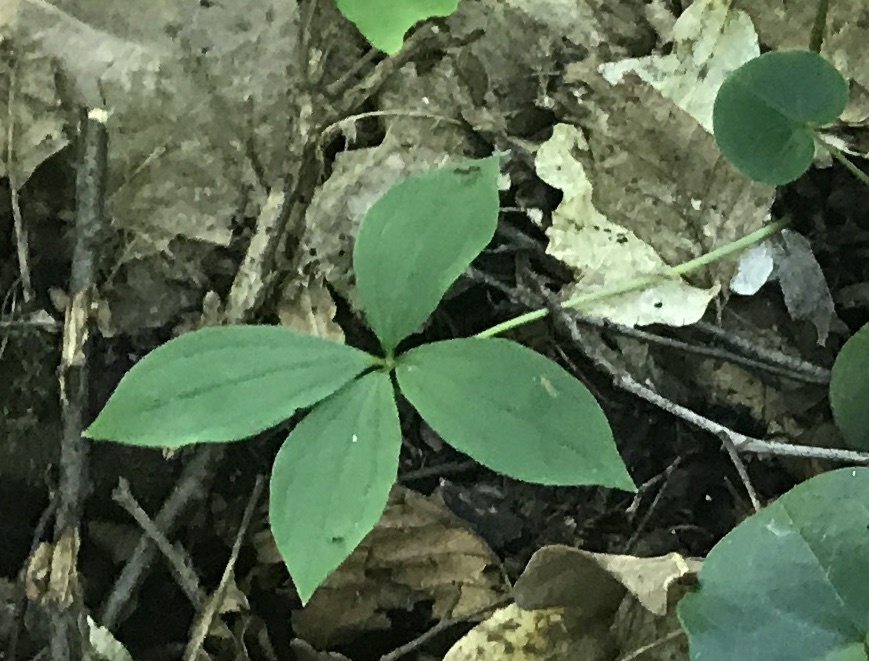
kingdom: Plantae
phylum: Tracheophyta
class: Liliopsida
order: Liliales
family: Melanthiaceae
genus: Paris
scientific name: Paris quadrifolia
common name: Herb-paris
